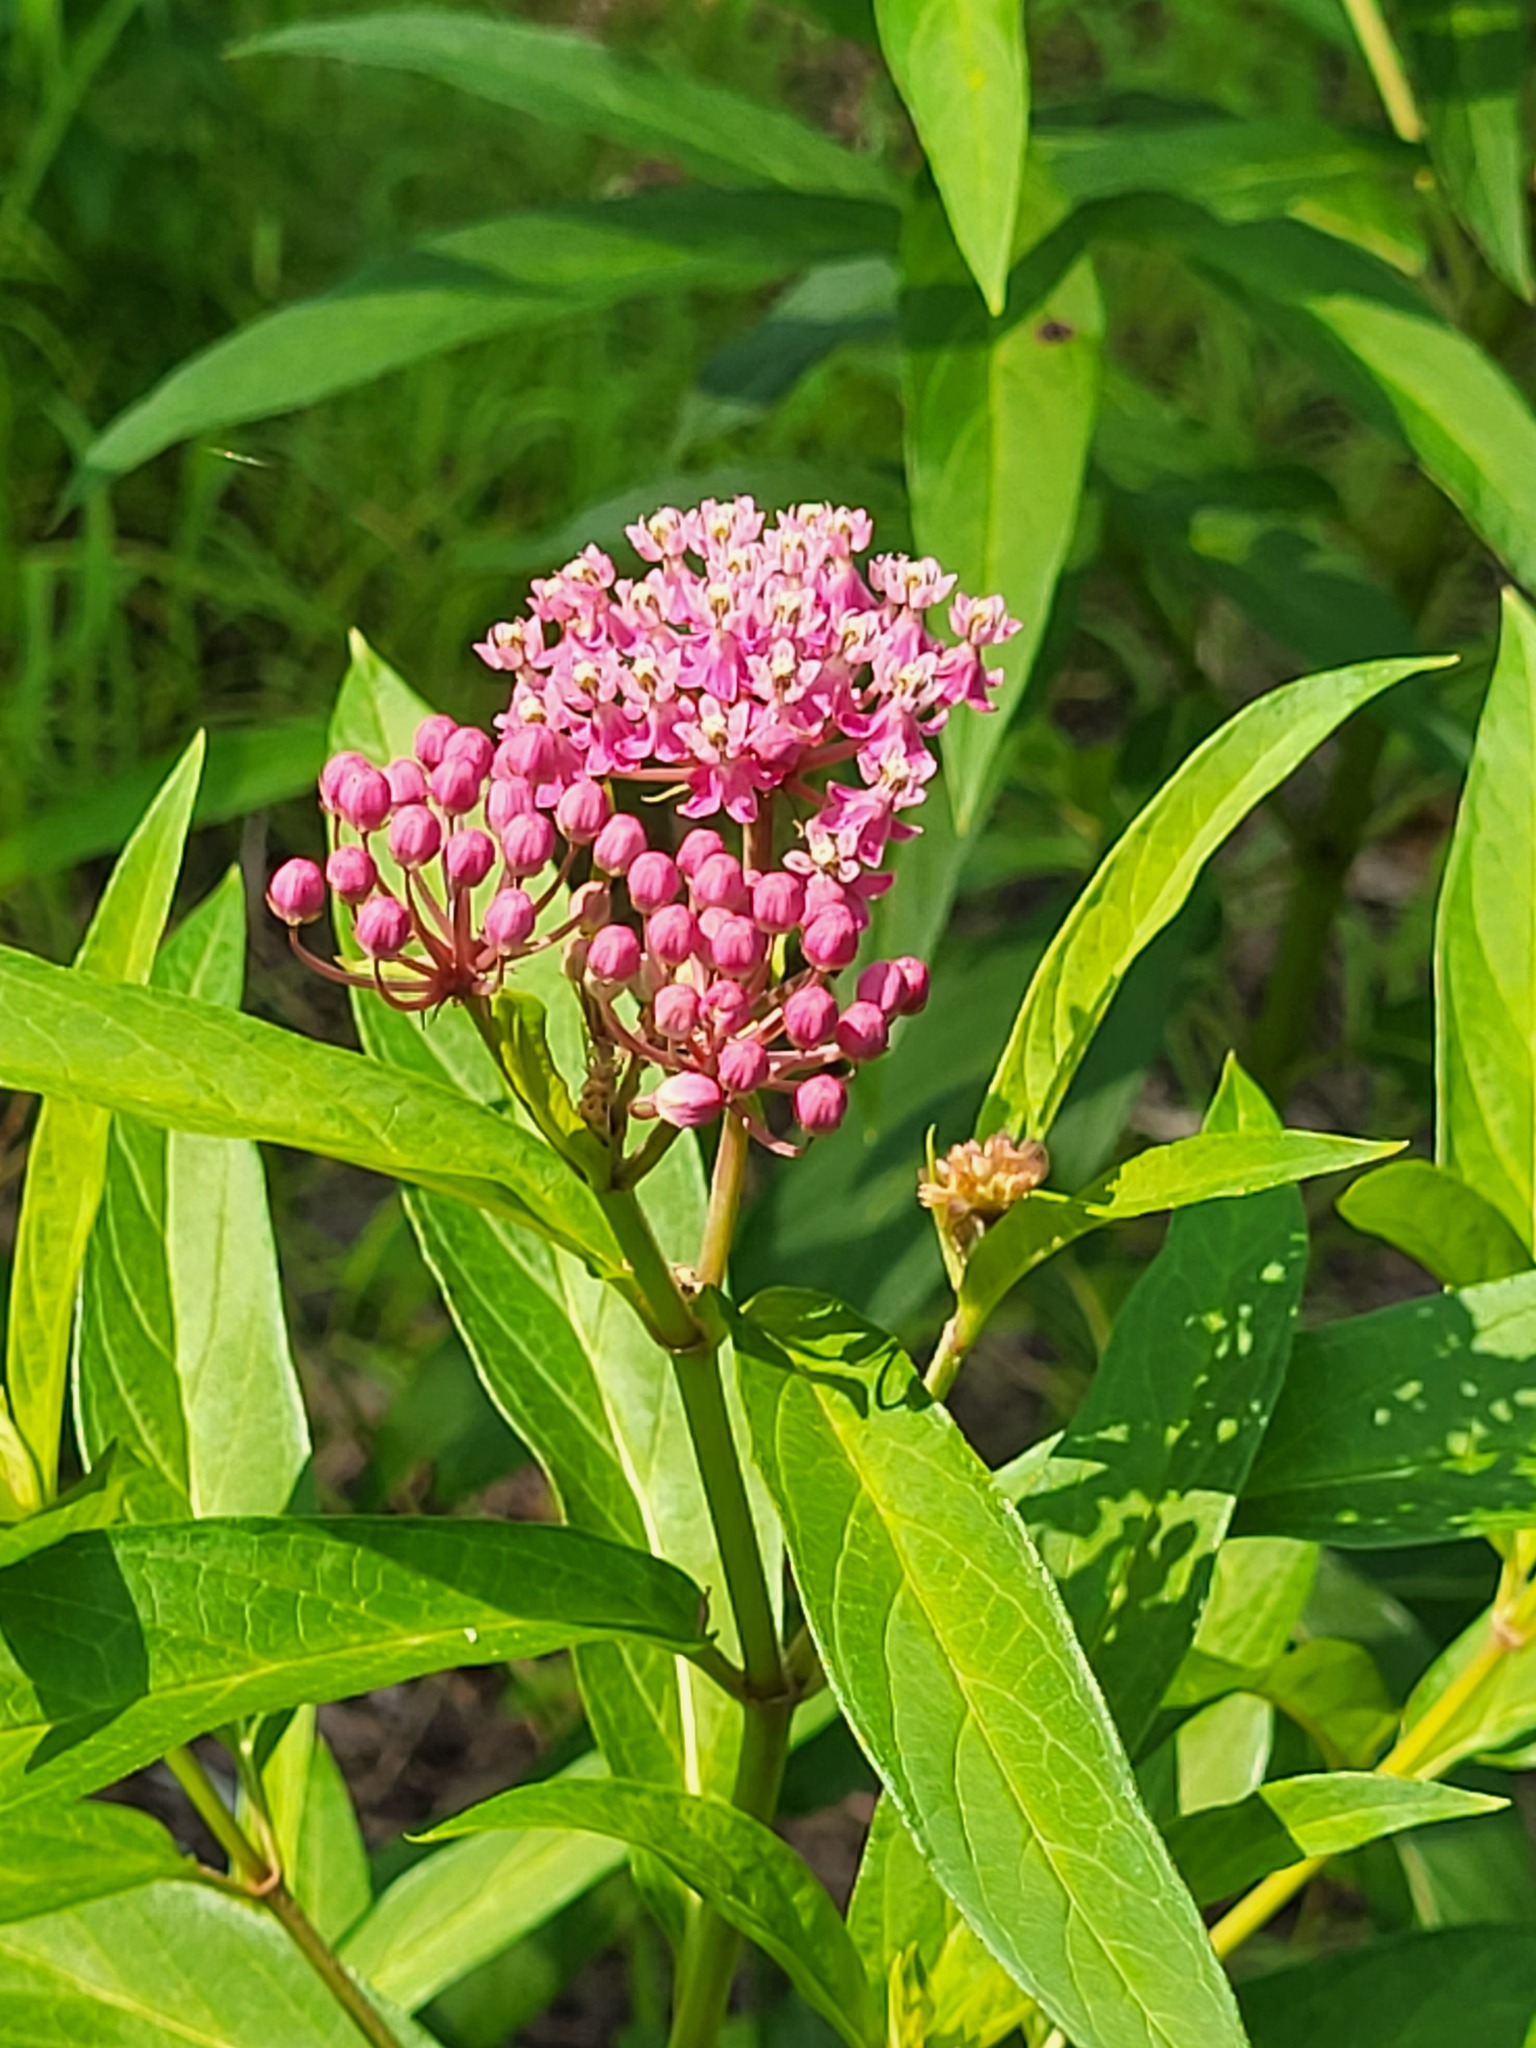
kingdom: Plantae
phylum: Tracheophyta
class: Magnoliopsida
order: Gentianales
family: Apocynaceae
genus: Asclepias
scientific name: Asclepias incarnata
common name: Swamp milkweed
